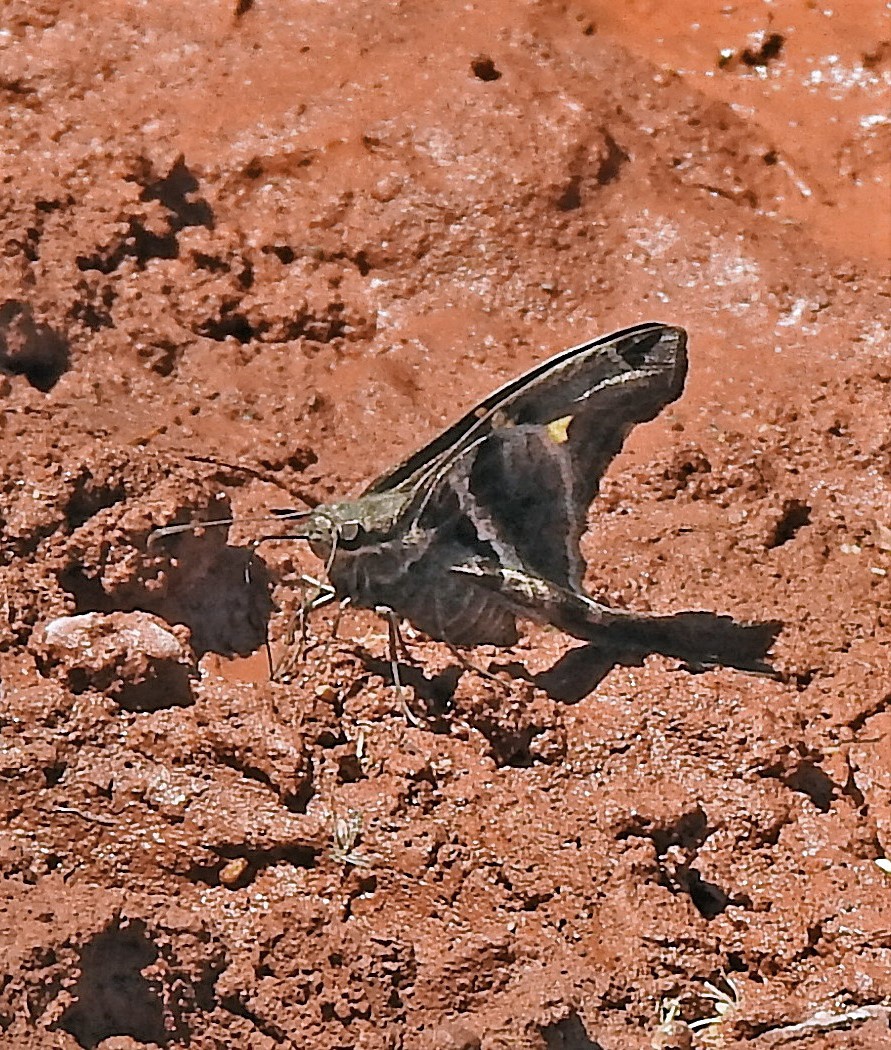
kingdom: Animalia
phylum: Arthropoda
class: Insecta
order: Lepidoptera
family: Hesperiidae
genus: Chioides
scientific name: Chioides catillus
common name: Silverbanded skipper
